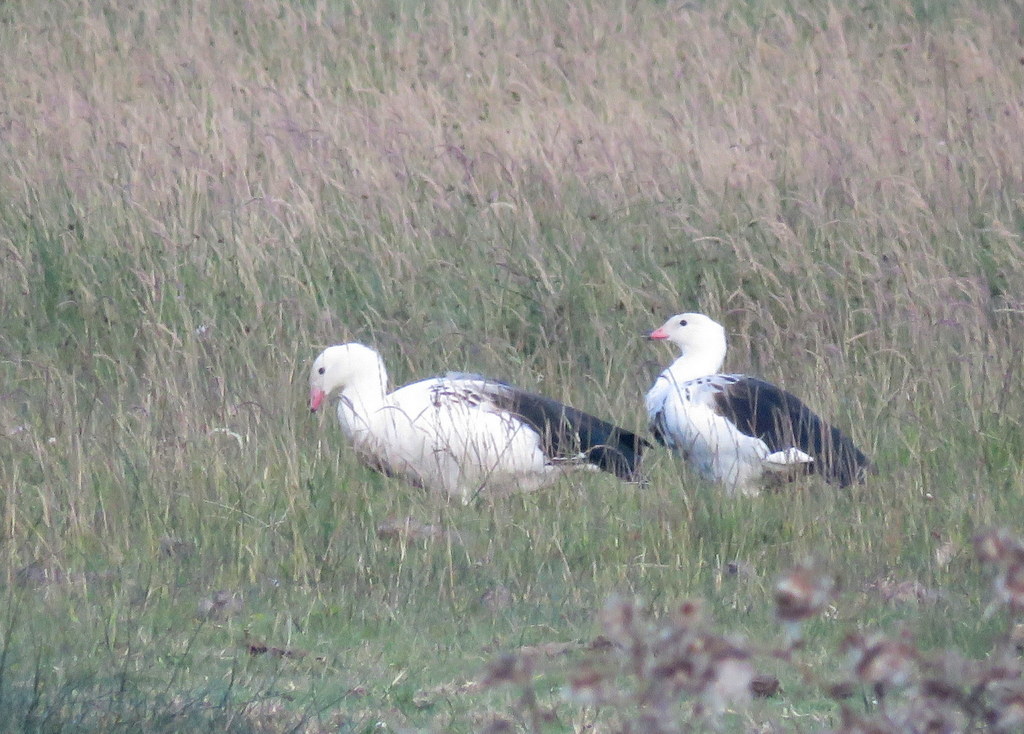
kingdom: Animalia
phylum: Chordata
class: Aves
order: Anseriformes
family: Anatidae
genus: Chloephaga
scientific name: Chloephaga melanoptera
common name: Andean goose
